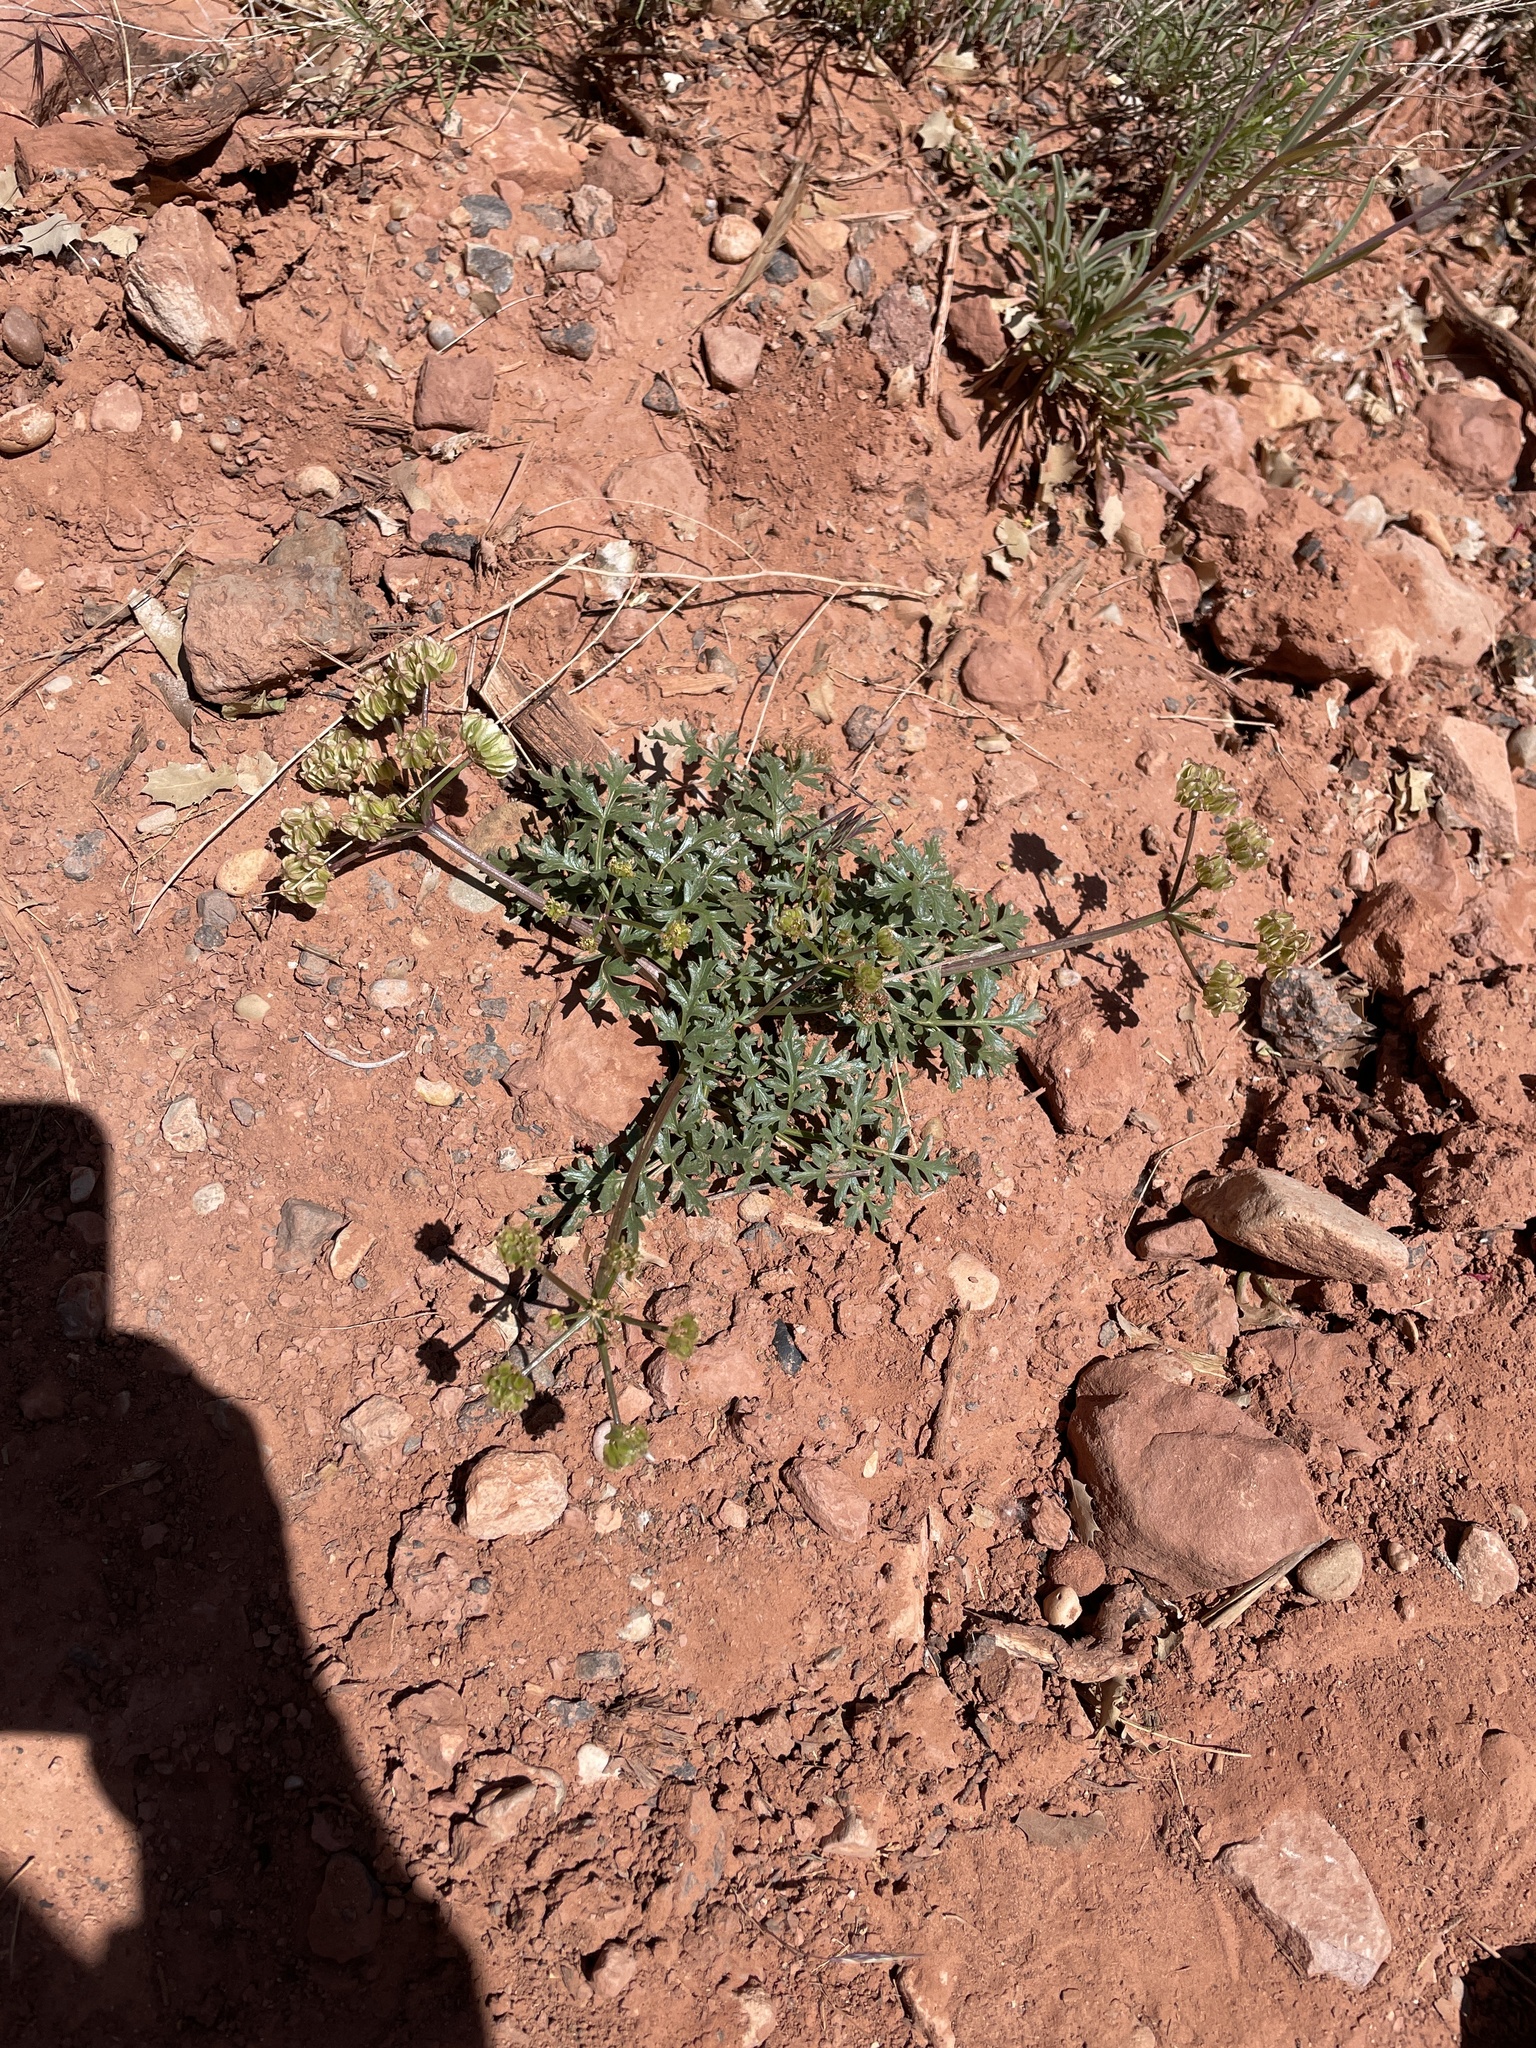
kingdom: Plantae
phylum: Tracheophyta
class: Magnoliopsida
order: Apiales
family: Apiaceae
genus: Aulospermum
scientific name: Aulospermum purpureum
